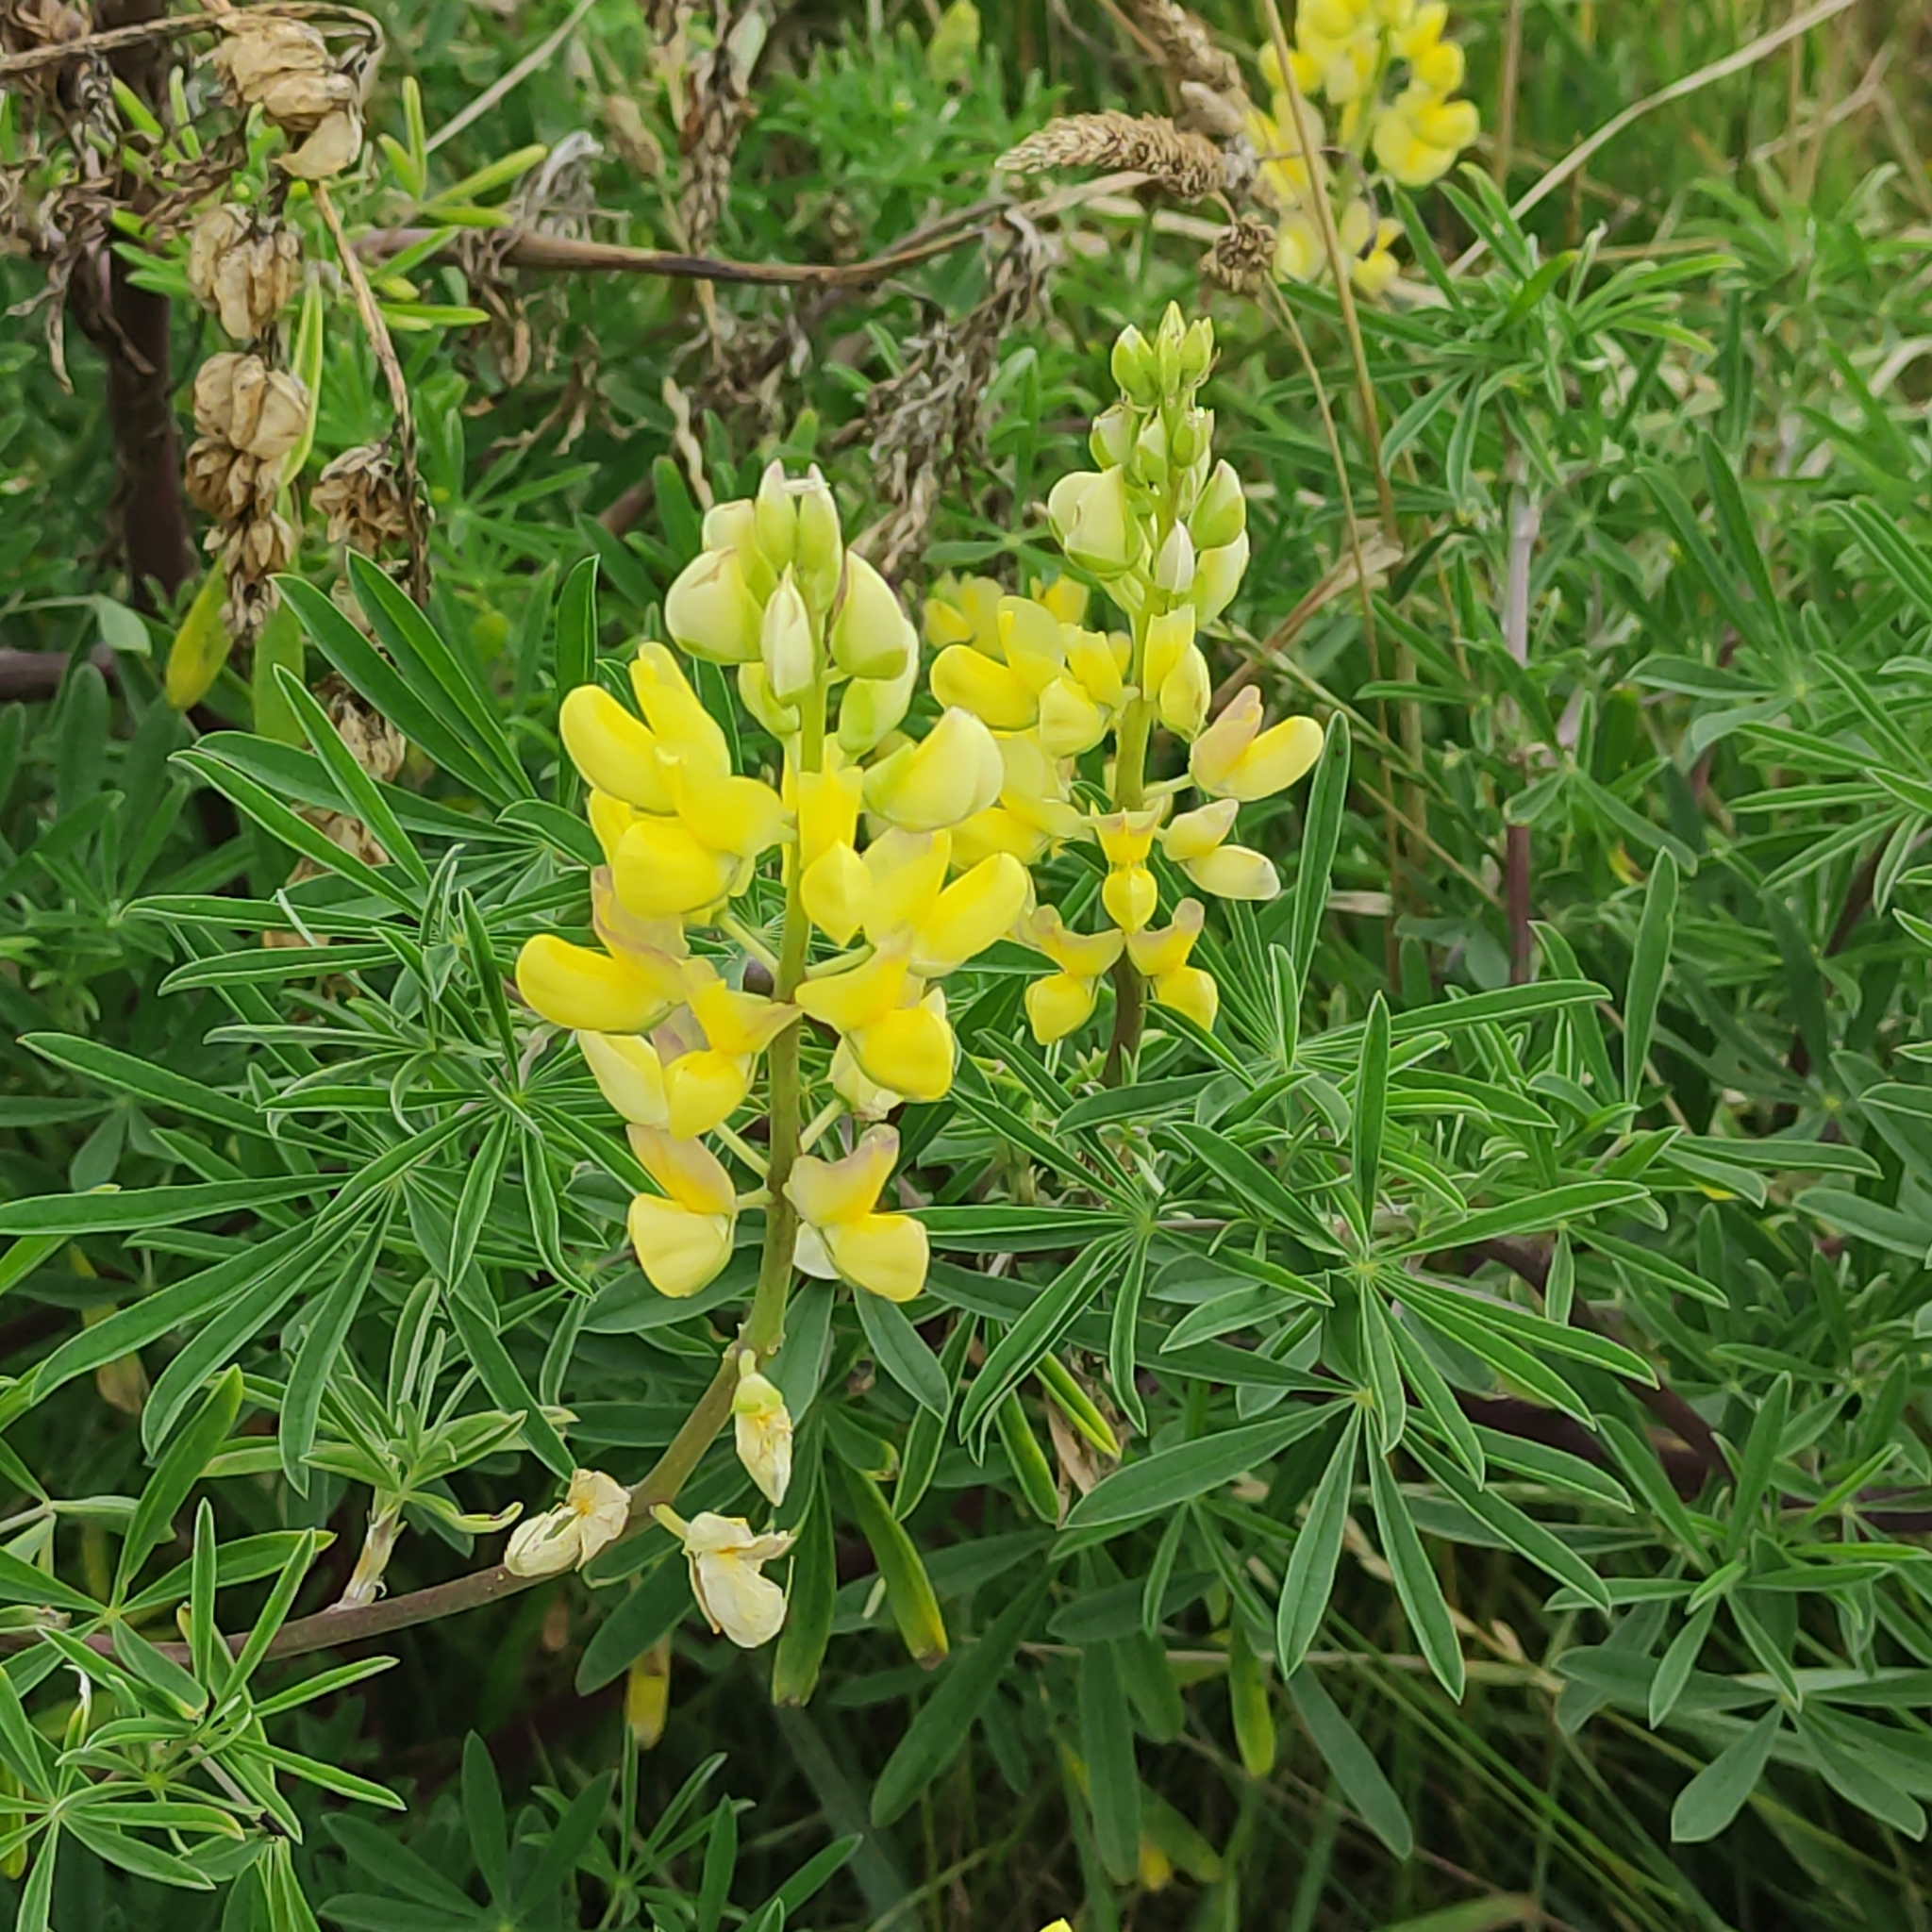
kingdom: Plantae
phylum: Tracheophyta
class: Magnoliopsida
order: Fabales
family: Fabaceae
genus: Lupinus
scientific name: Lupinus arboreus
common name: Yellow bush lupine
